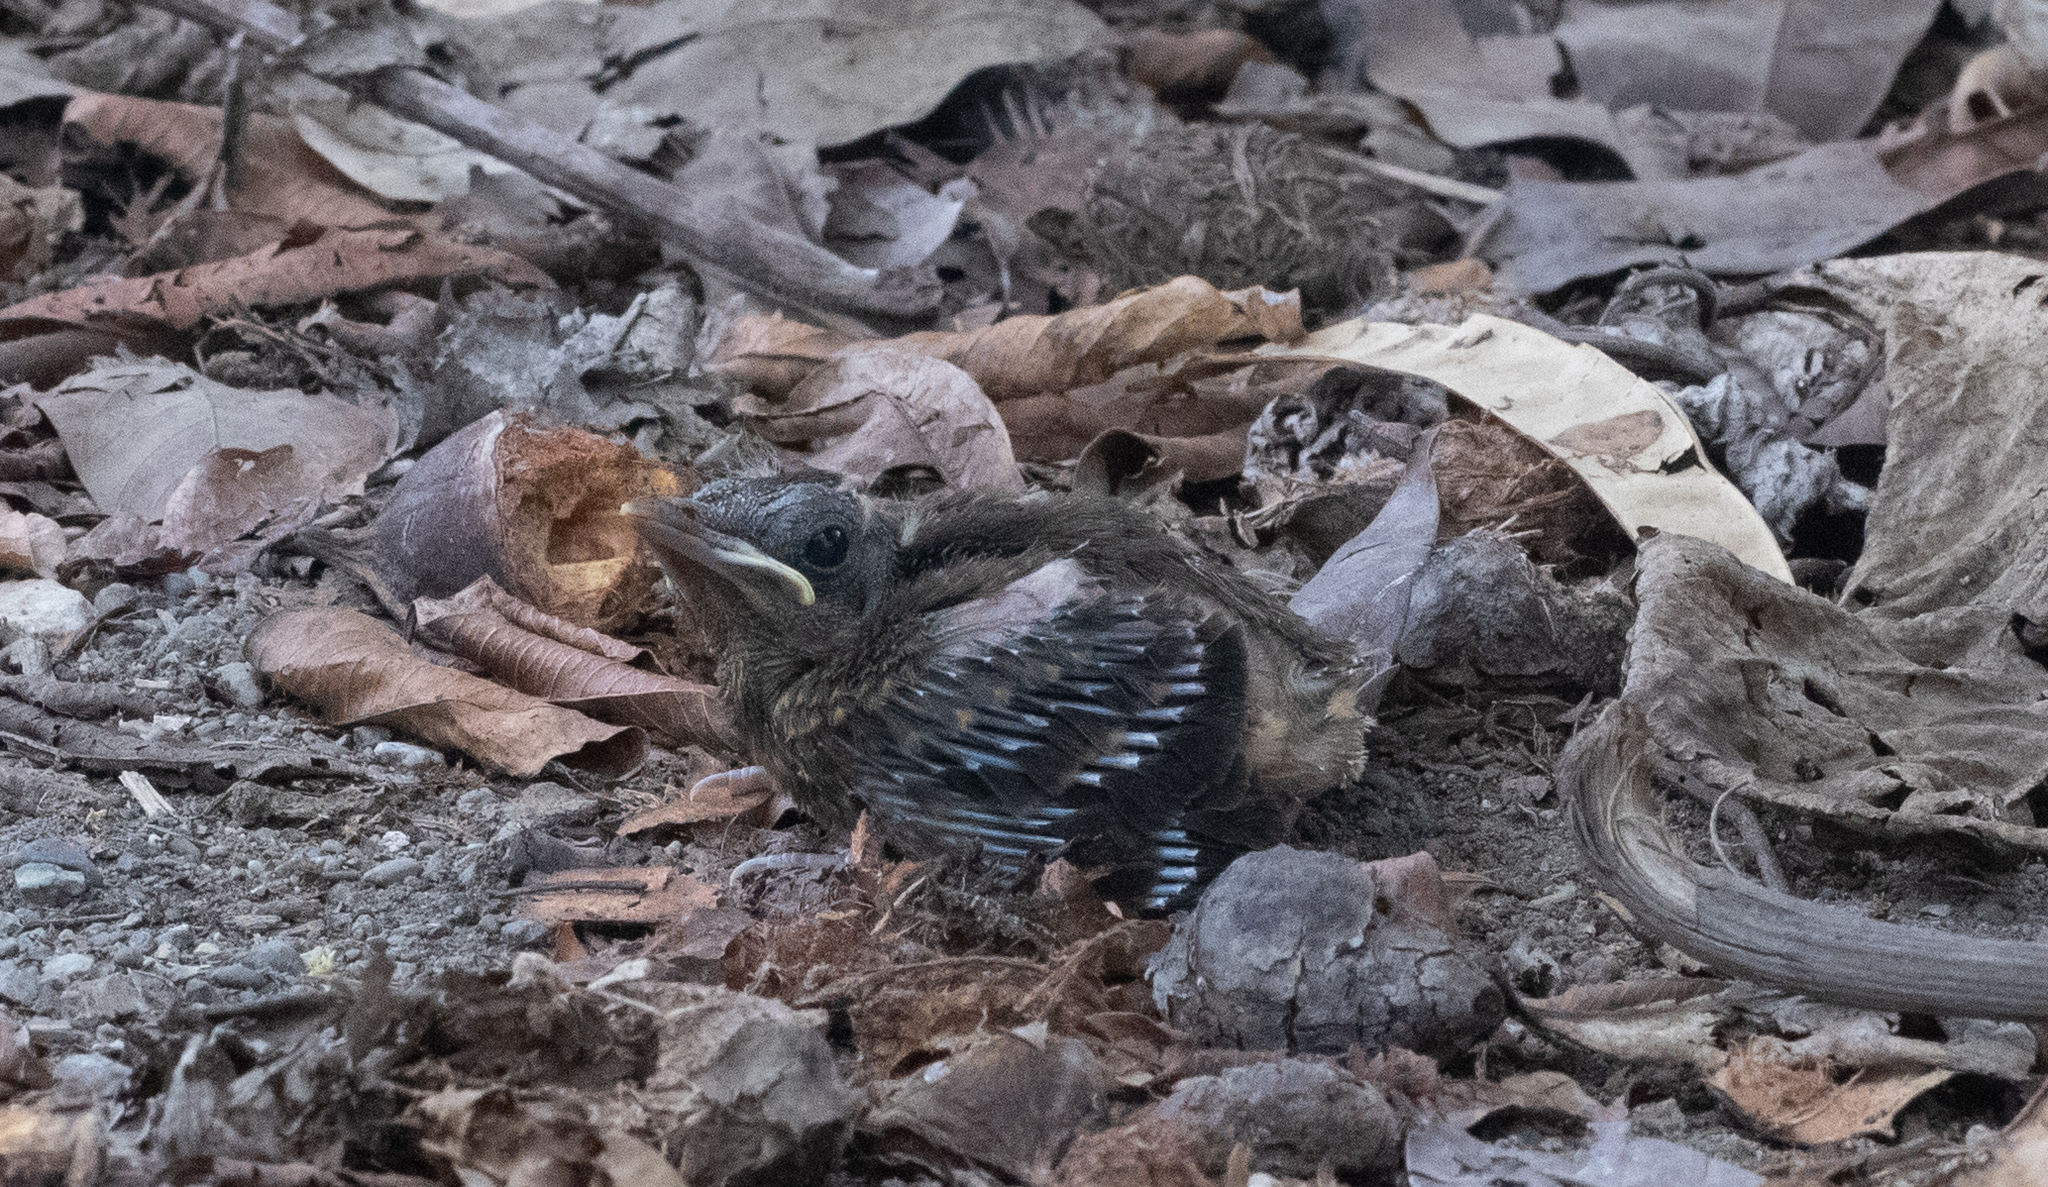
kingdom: Animalia
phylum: Chordata
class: Aves
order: Passeriformes
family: Turdidae
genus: Turdus
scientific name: Turdus grayi
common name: Clay-colored thrush
